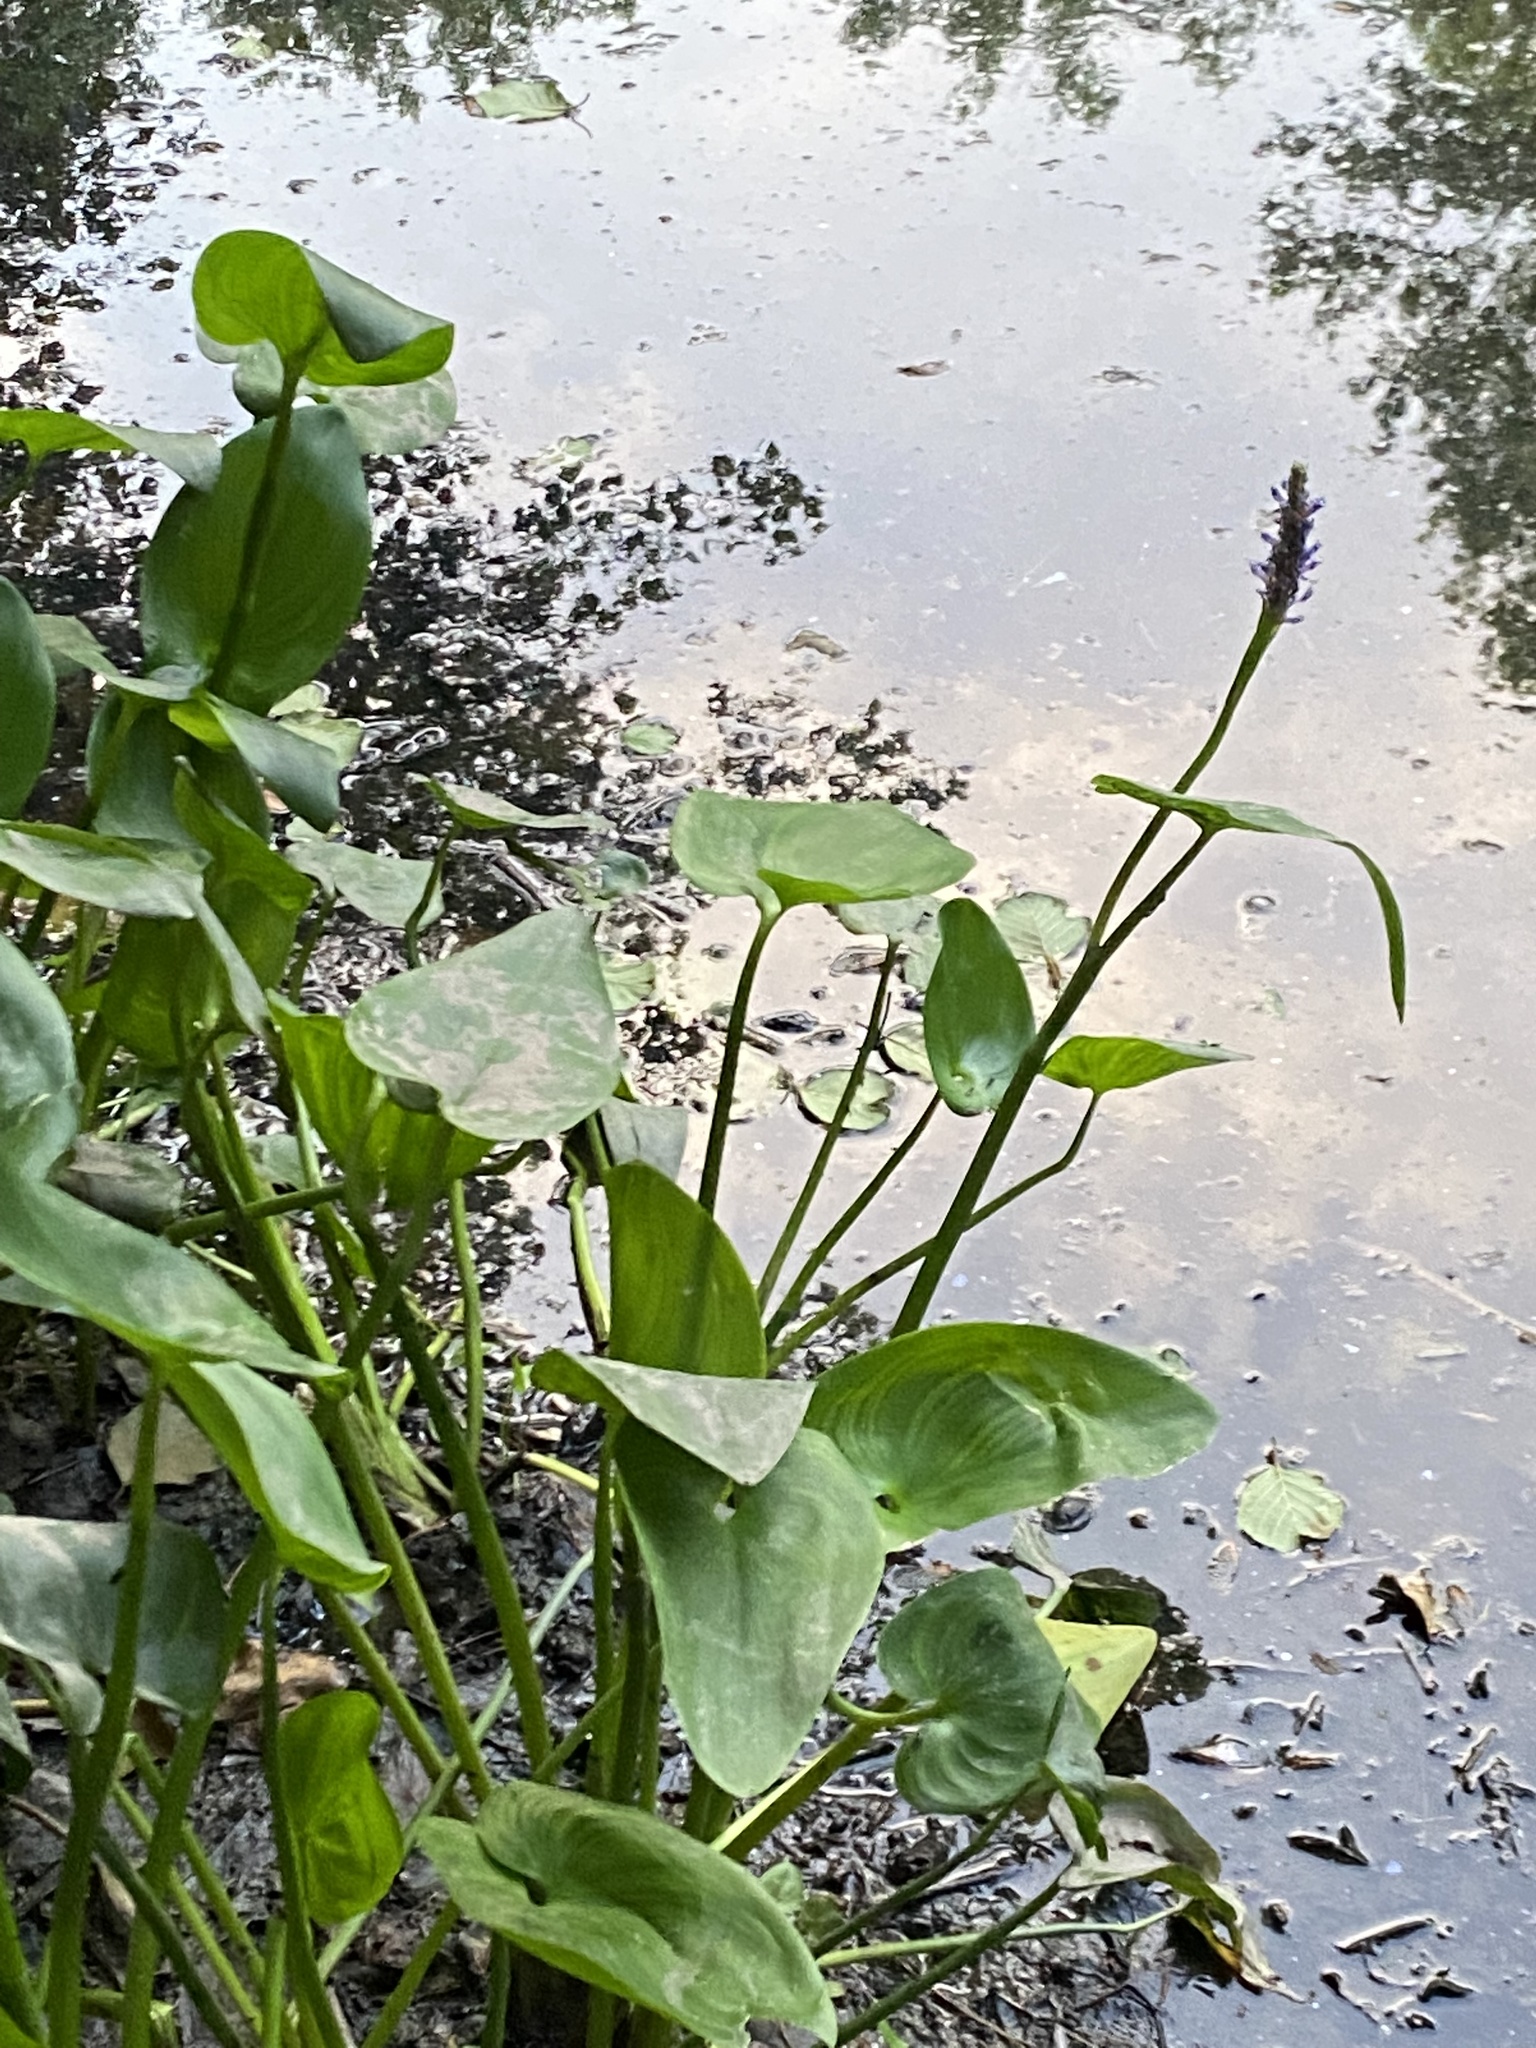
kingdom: Plantae
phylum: Tracheophyta
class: Liliopsida
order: Commelinales
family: Pontederiaceae
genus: Pontederia
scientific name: Pontederia cordata
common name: Pickerelweed
